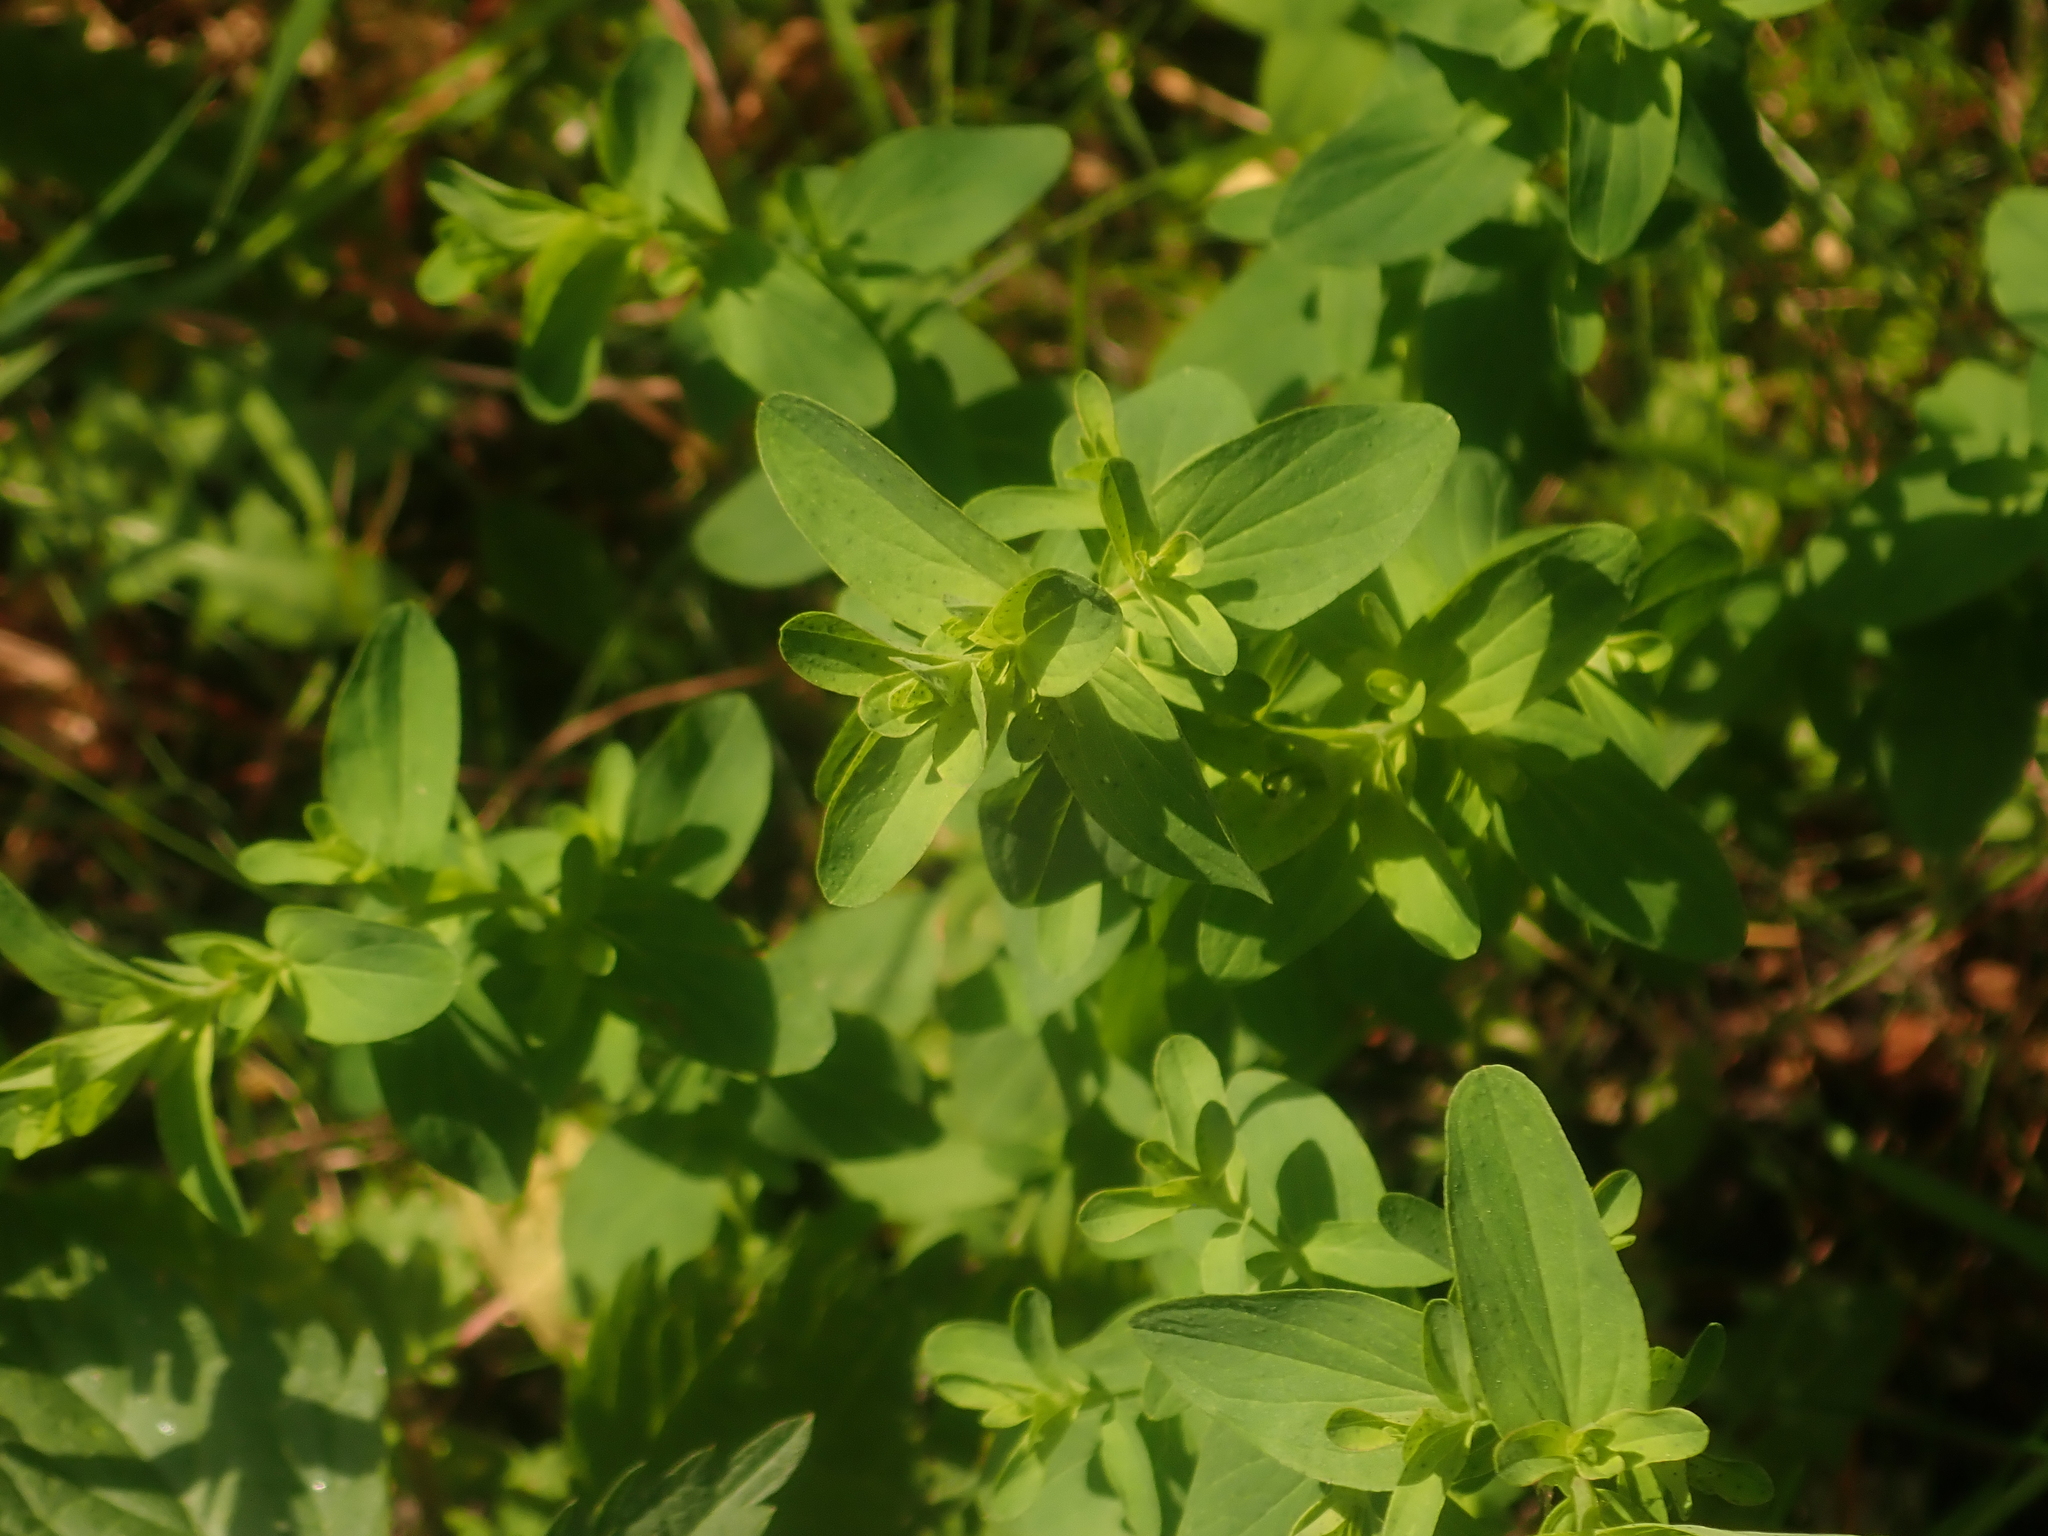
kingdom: Plantae
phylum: Tracheophyta
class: Magnoliopsida
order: Malpighiales
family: Hypericaceae
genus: Hypericum
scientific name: Hypericum perforatum
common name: Common st. johnswort
